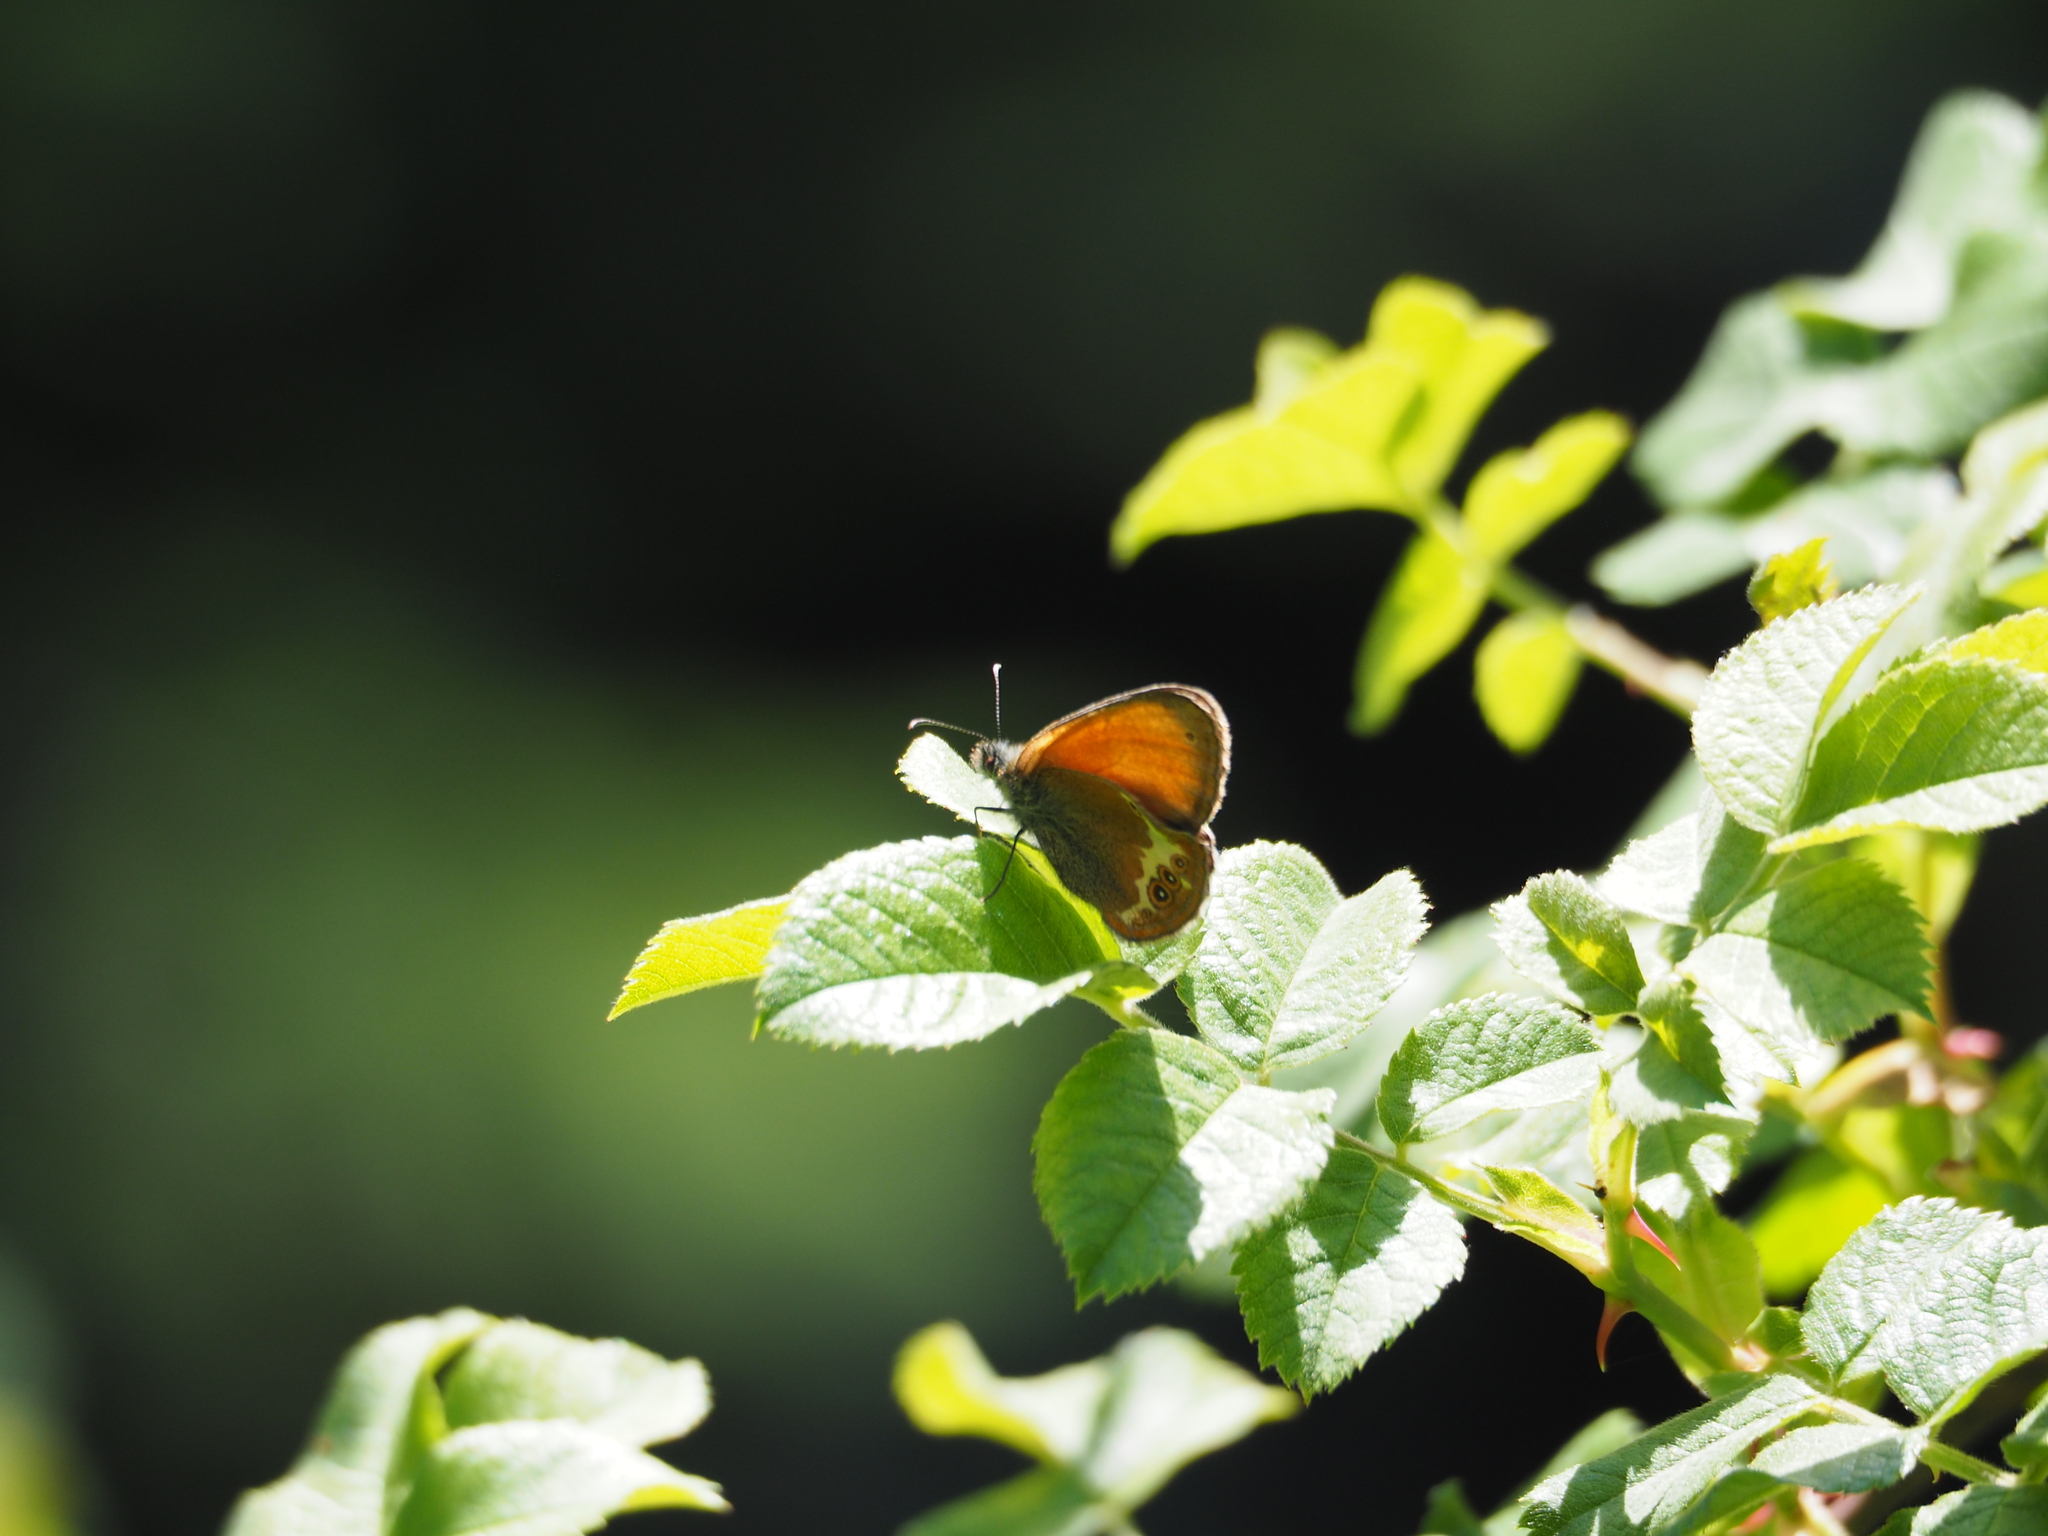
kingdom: Animalia
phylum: Arthropoda
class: Insecta
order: Lepidoptera
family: Nymphalidae
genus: Coenonympha
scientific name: Coenonympha arcania
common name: Pearly heath
